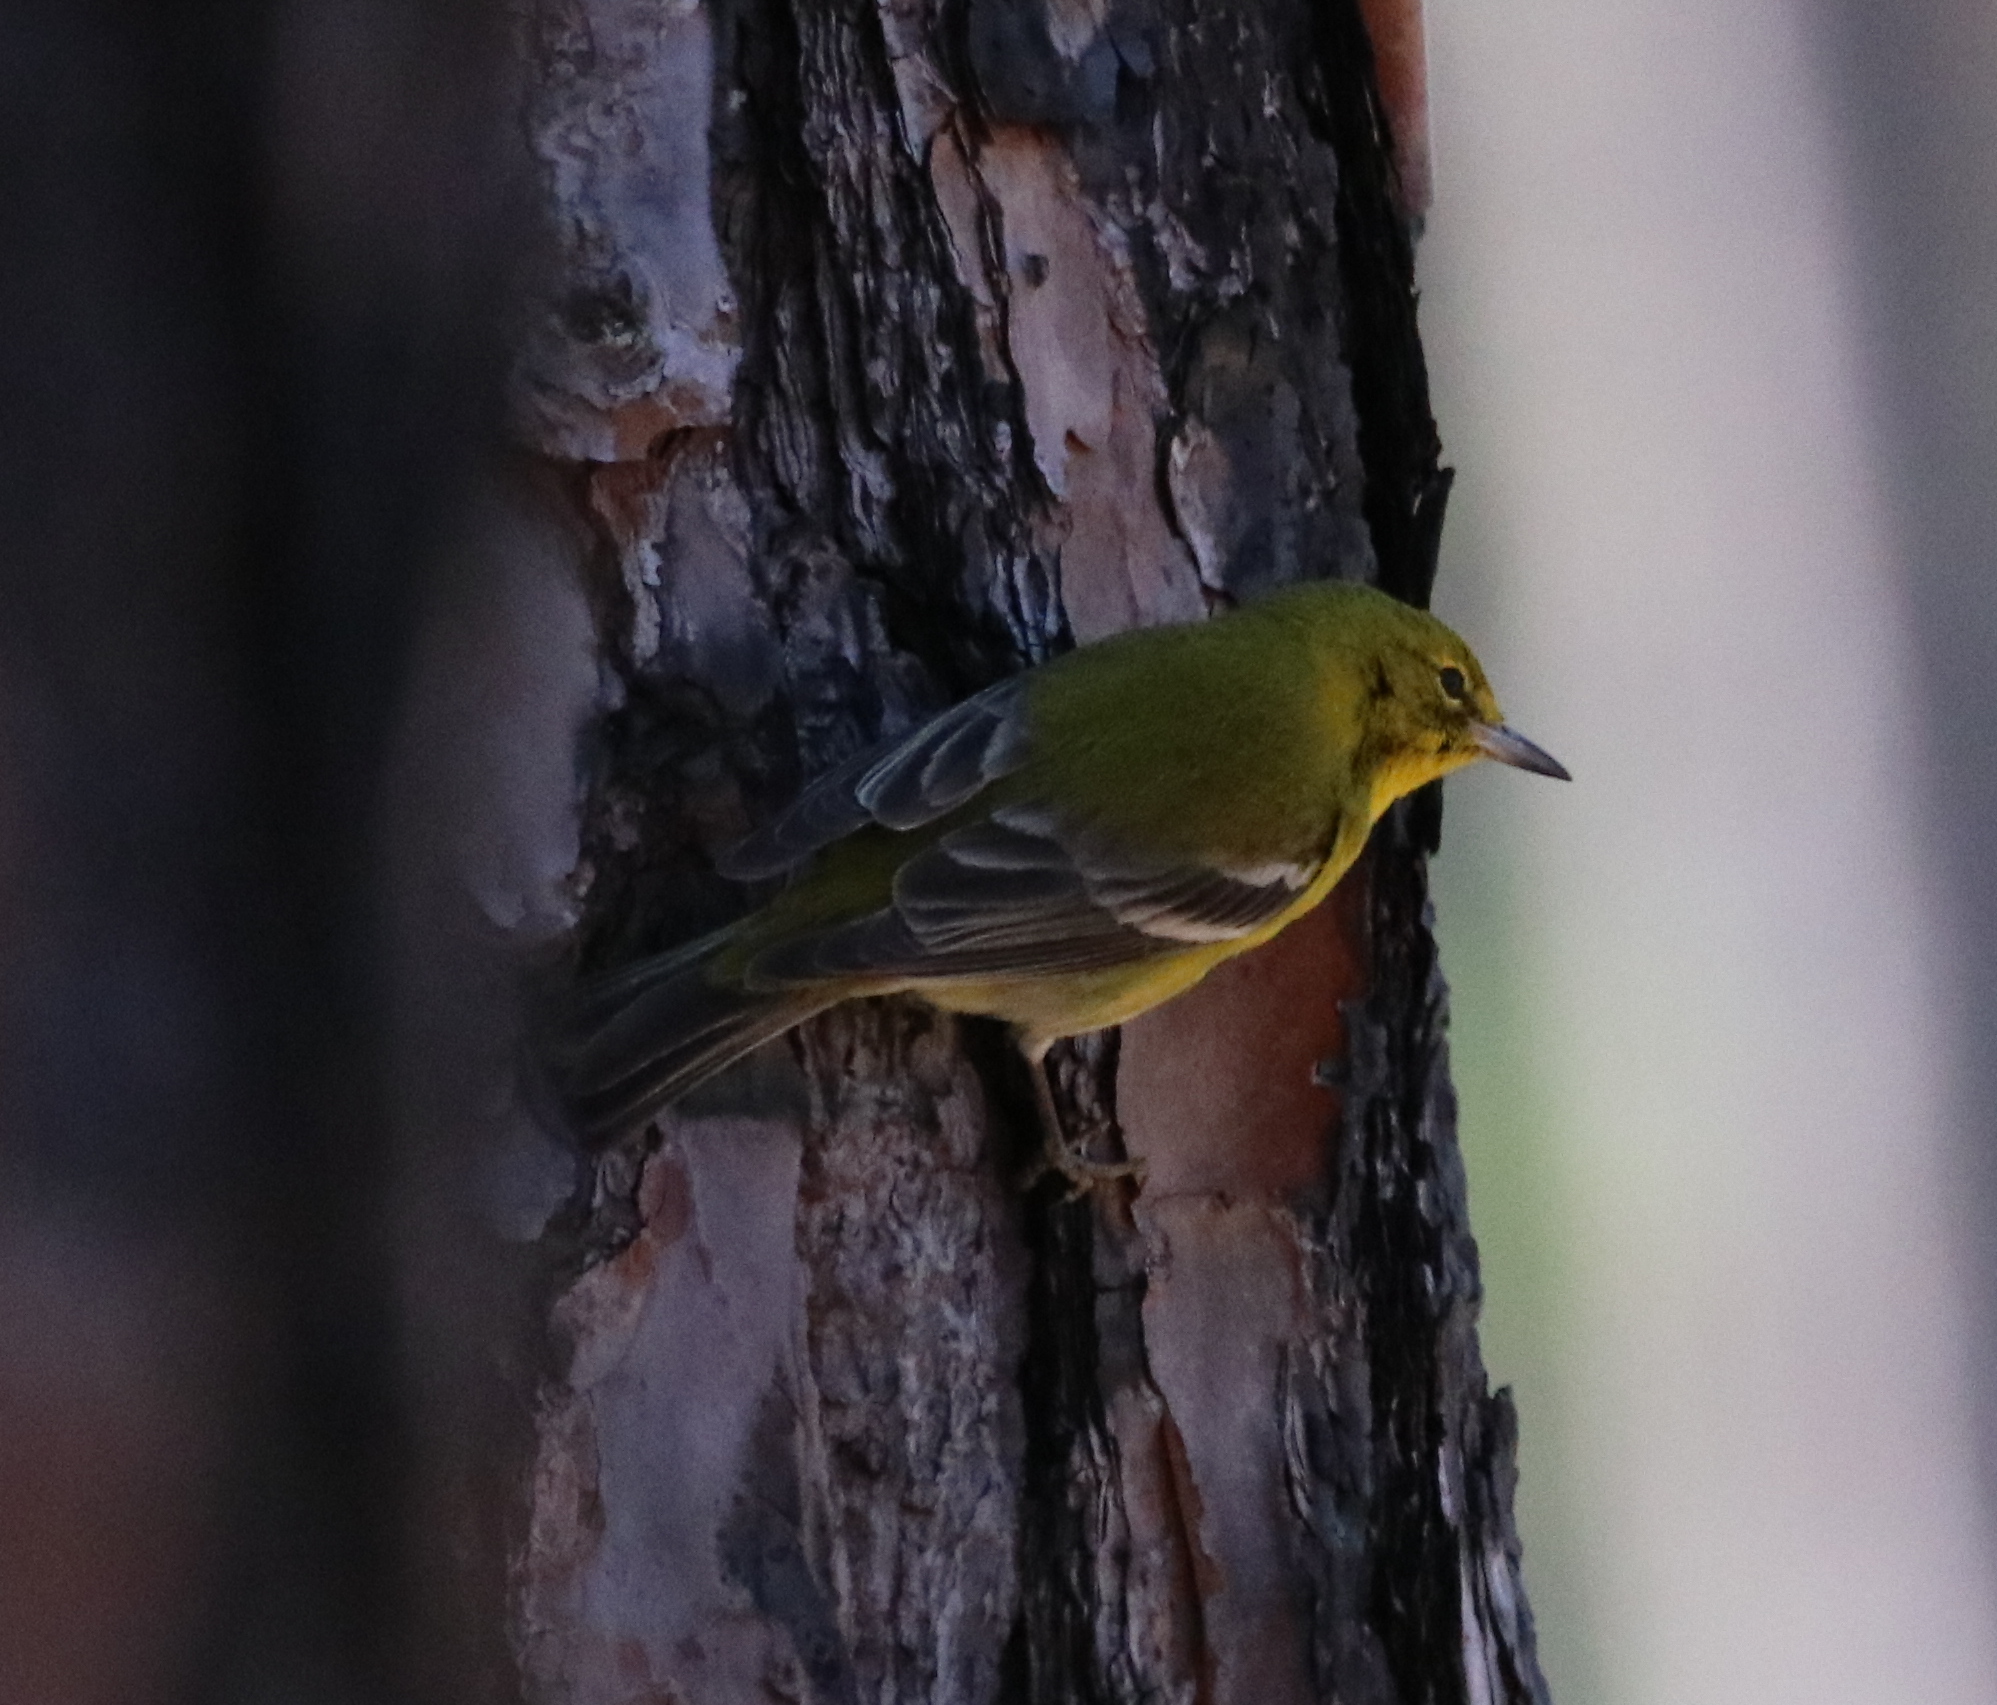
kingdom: Animalia
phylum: Chordata
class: Aves
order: Passeriformes
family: Parulidae
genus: Setophaga
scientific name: Setophaga pinus
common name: Pine warbler
